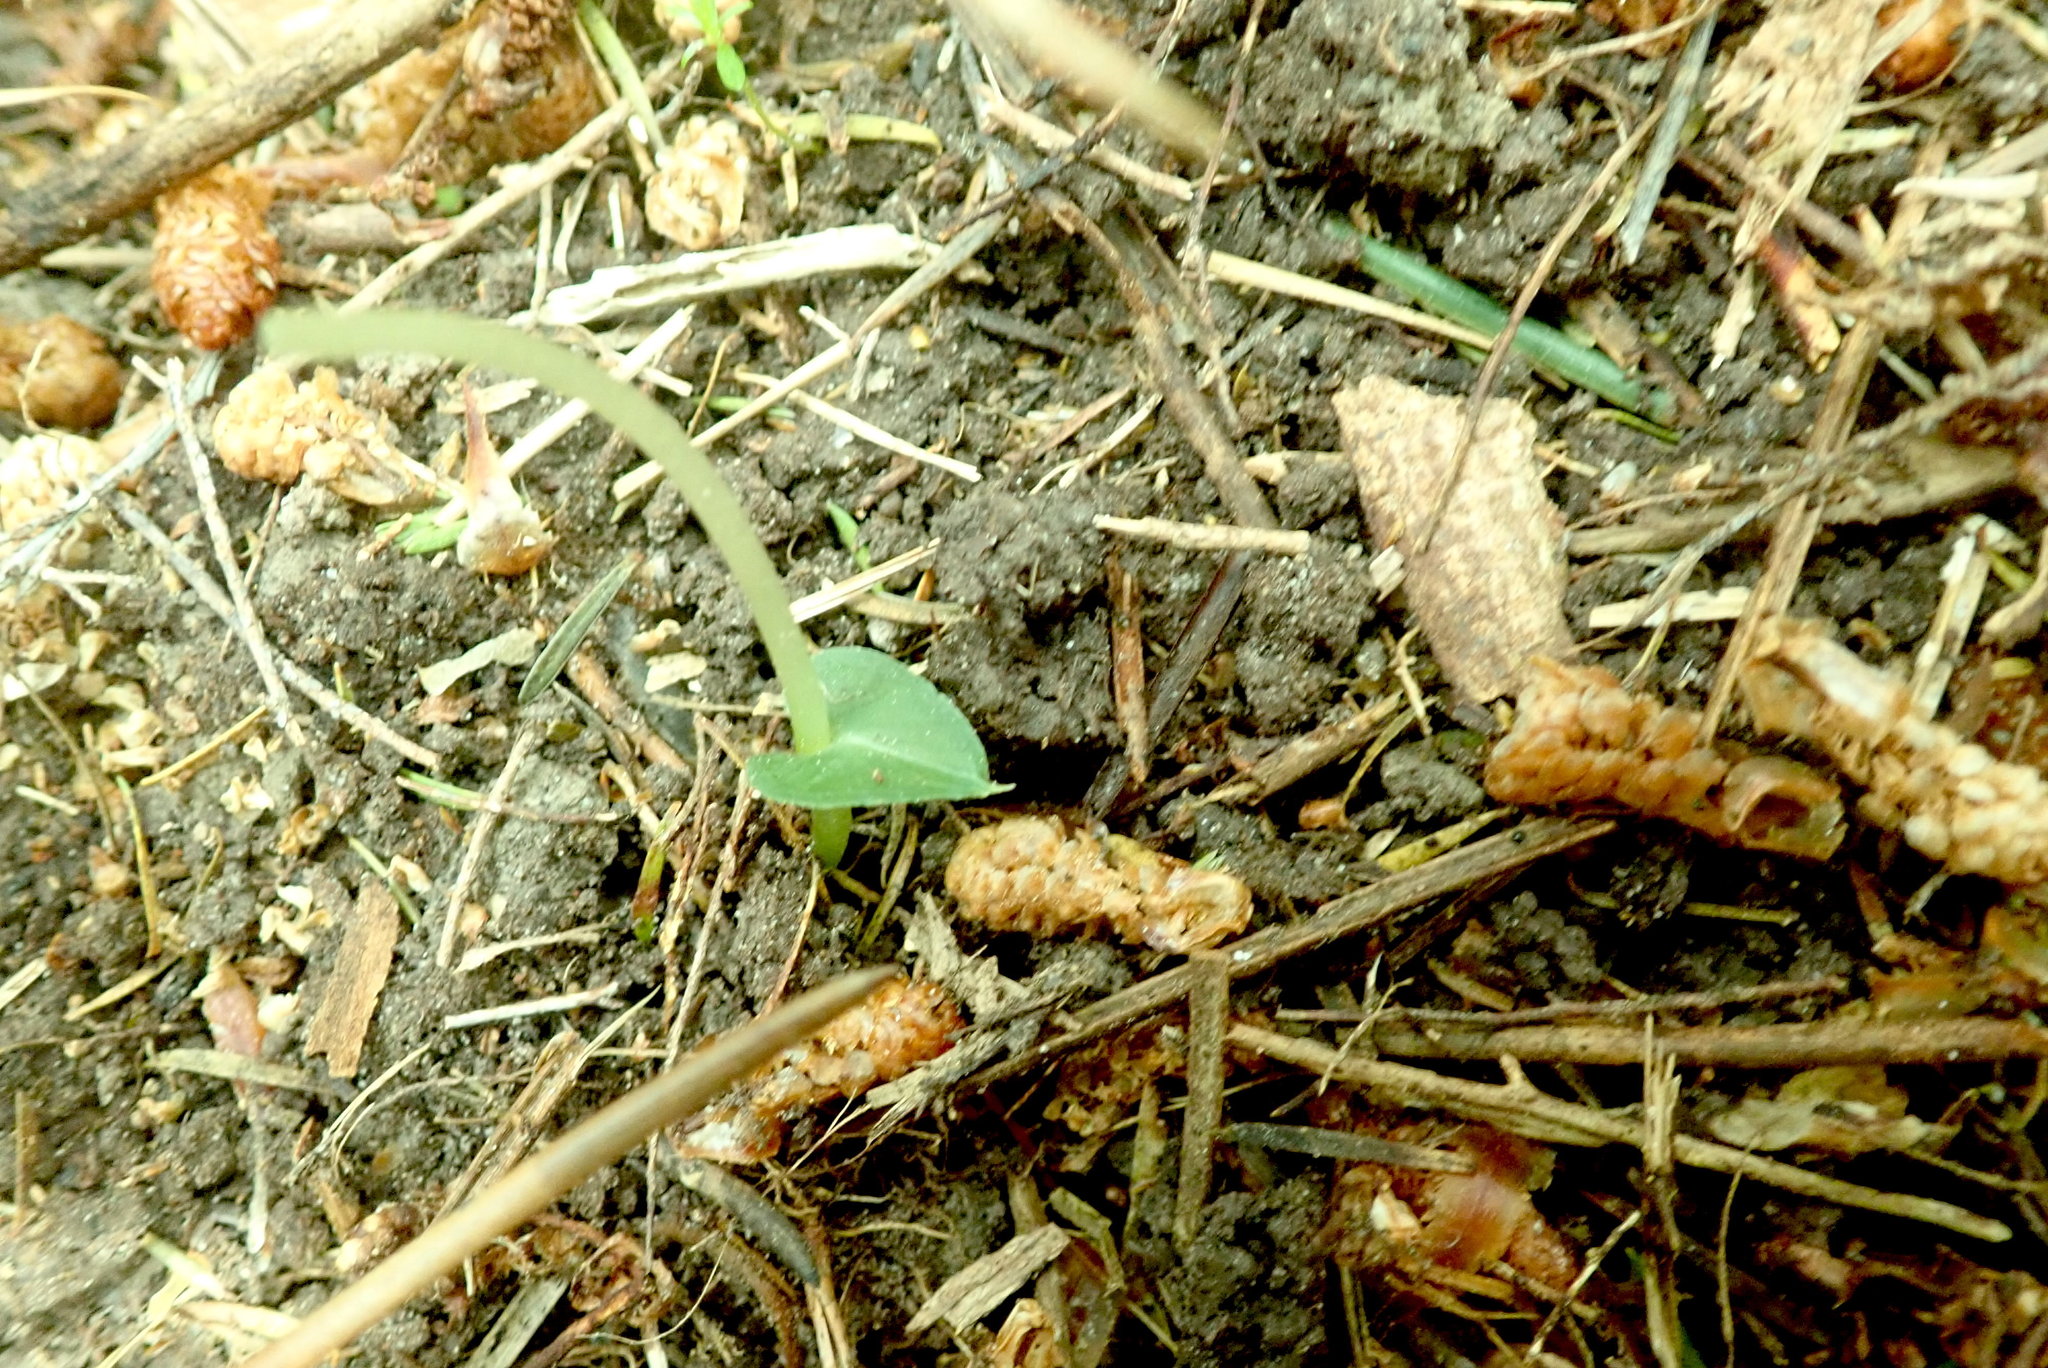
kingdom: Plantae
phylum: Tracheophyta
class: Liliopsida
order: Asparagales
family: Orchidaceae
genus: Corybas
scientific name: Corybas cheesemanii
